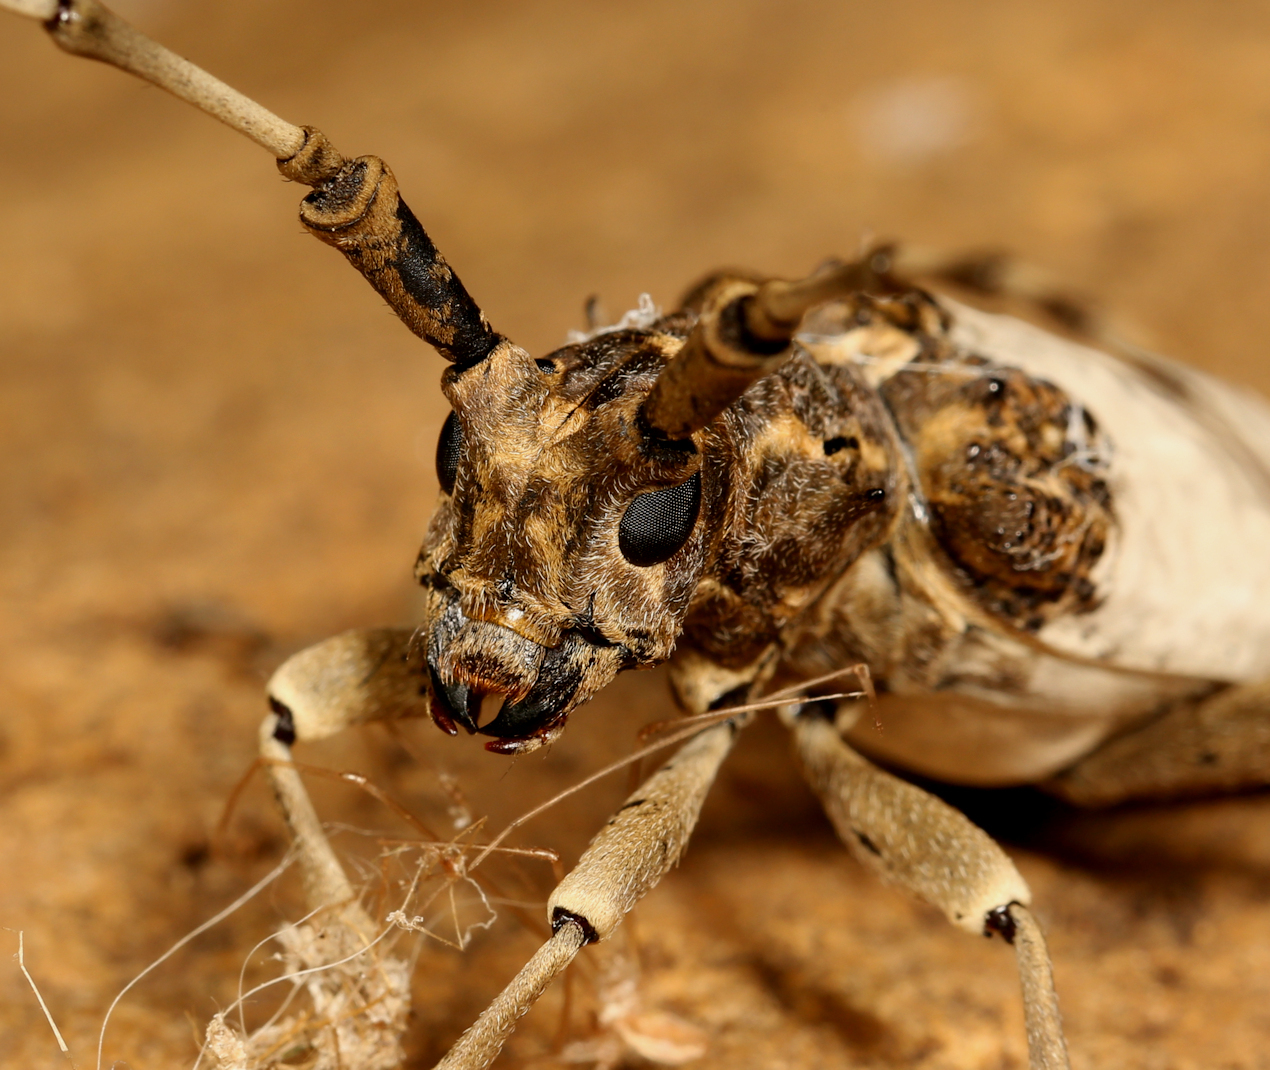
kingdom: Animalia
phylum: Arthropoda
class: Insecta
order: Coleoptera
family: Cerambycidae
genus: Anthores
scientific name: Anthores leuconotus
